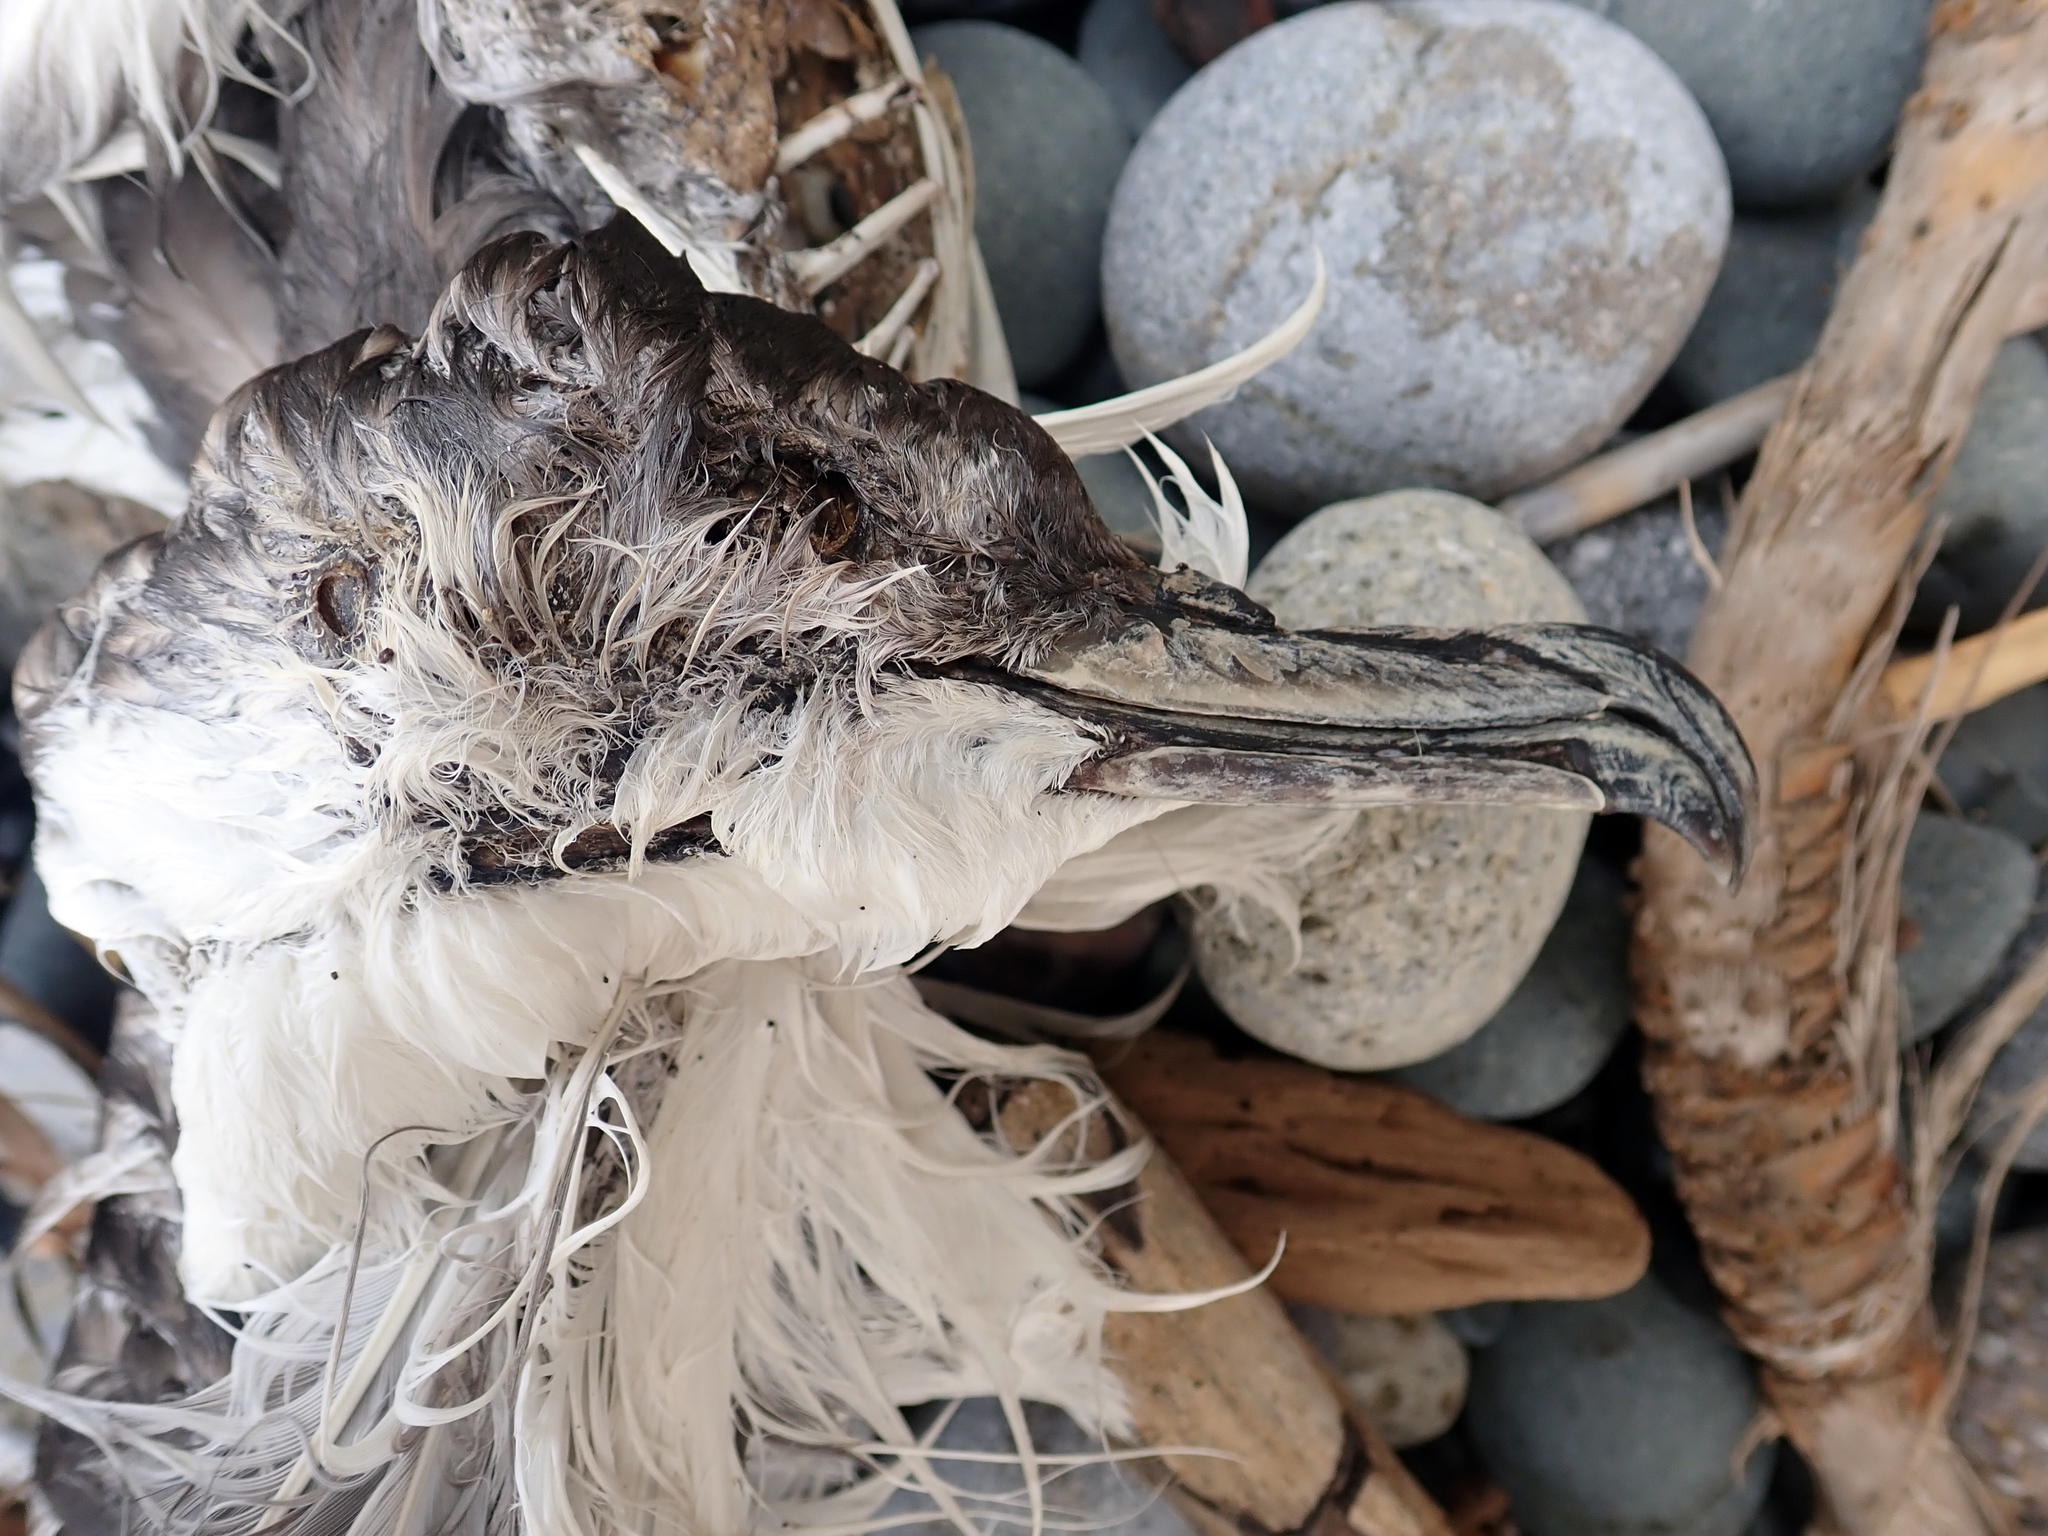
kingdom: Animalia
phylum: Chordata
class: Aves
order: Procellariiformes
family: Procellariidae
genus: Puffinus
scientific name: Puffinus bulleri
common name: Buller's shearwater
